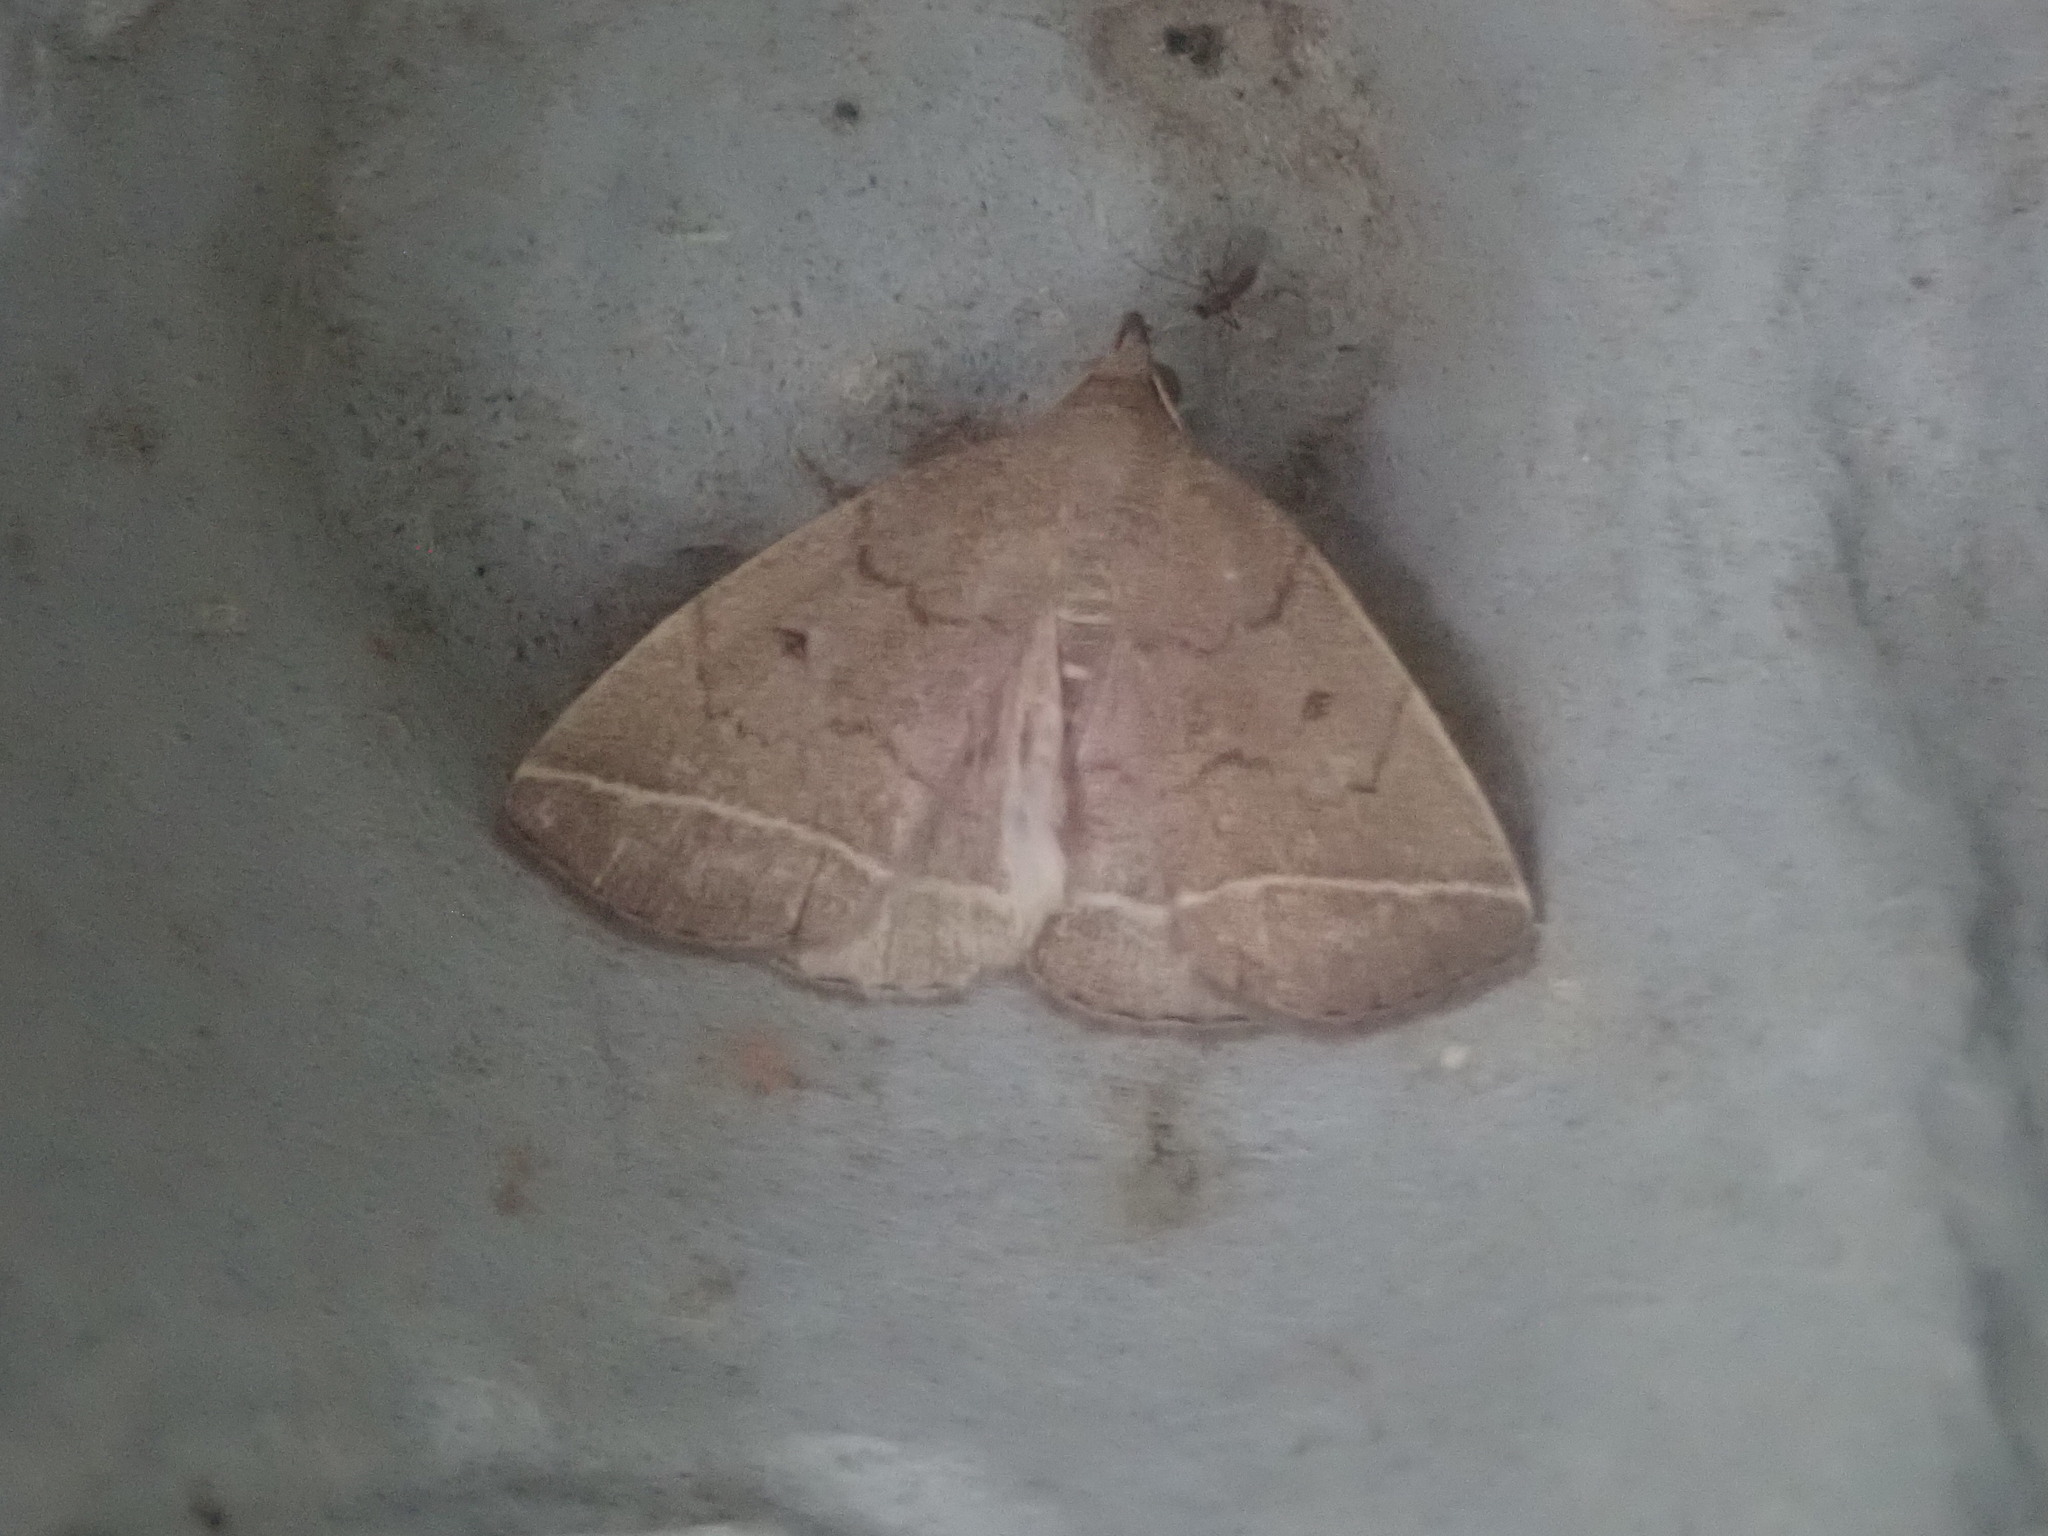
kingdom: Animalia
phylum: Arthropoda
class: Insecta
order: Lepidoptera
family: Erebidae
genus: Zanclognatha
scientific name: Zanclognatha marcidilinea
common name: Yellowish fan-foot
